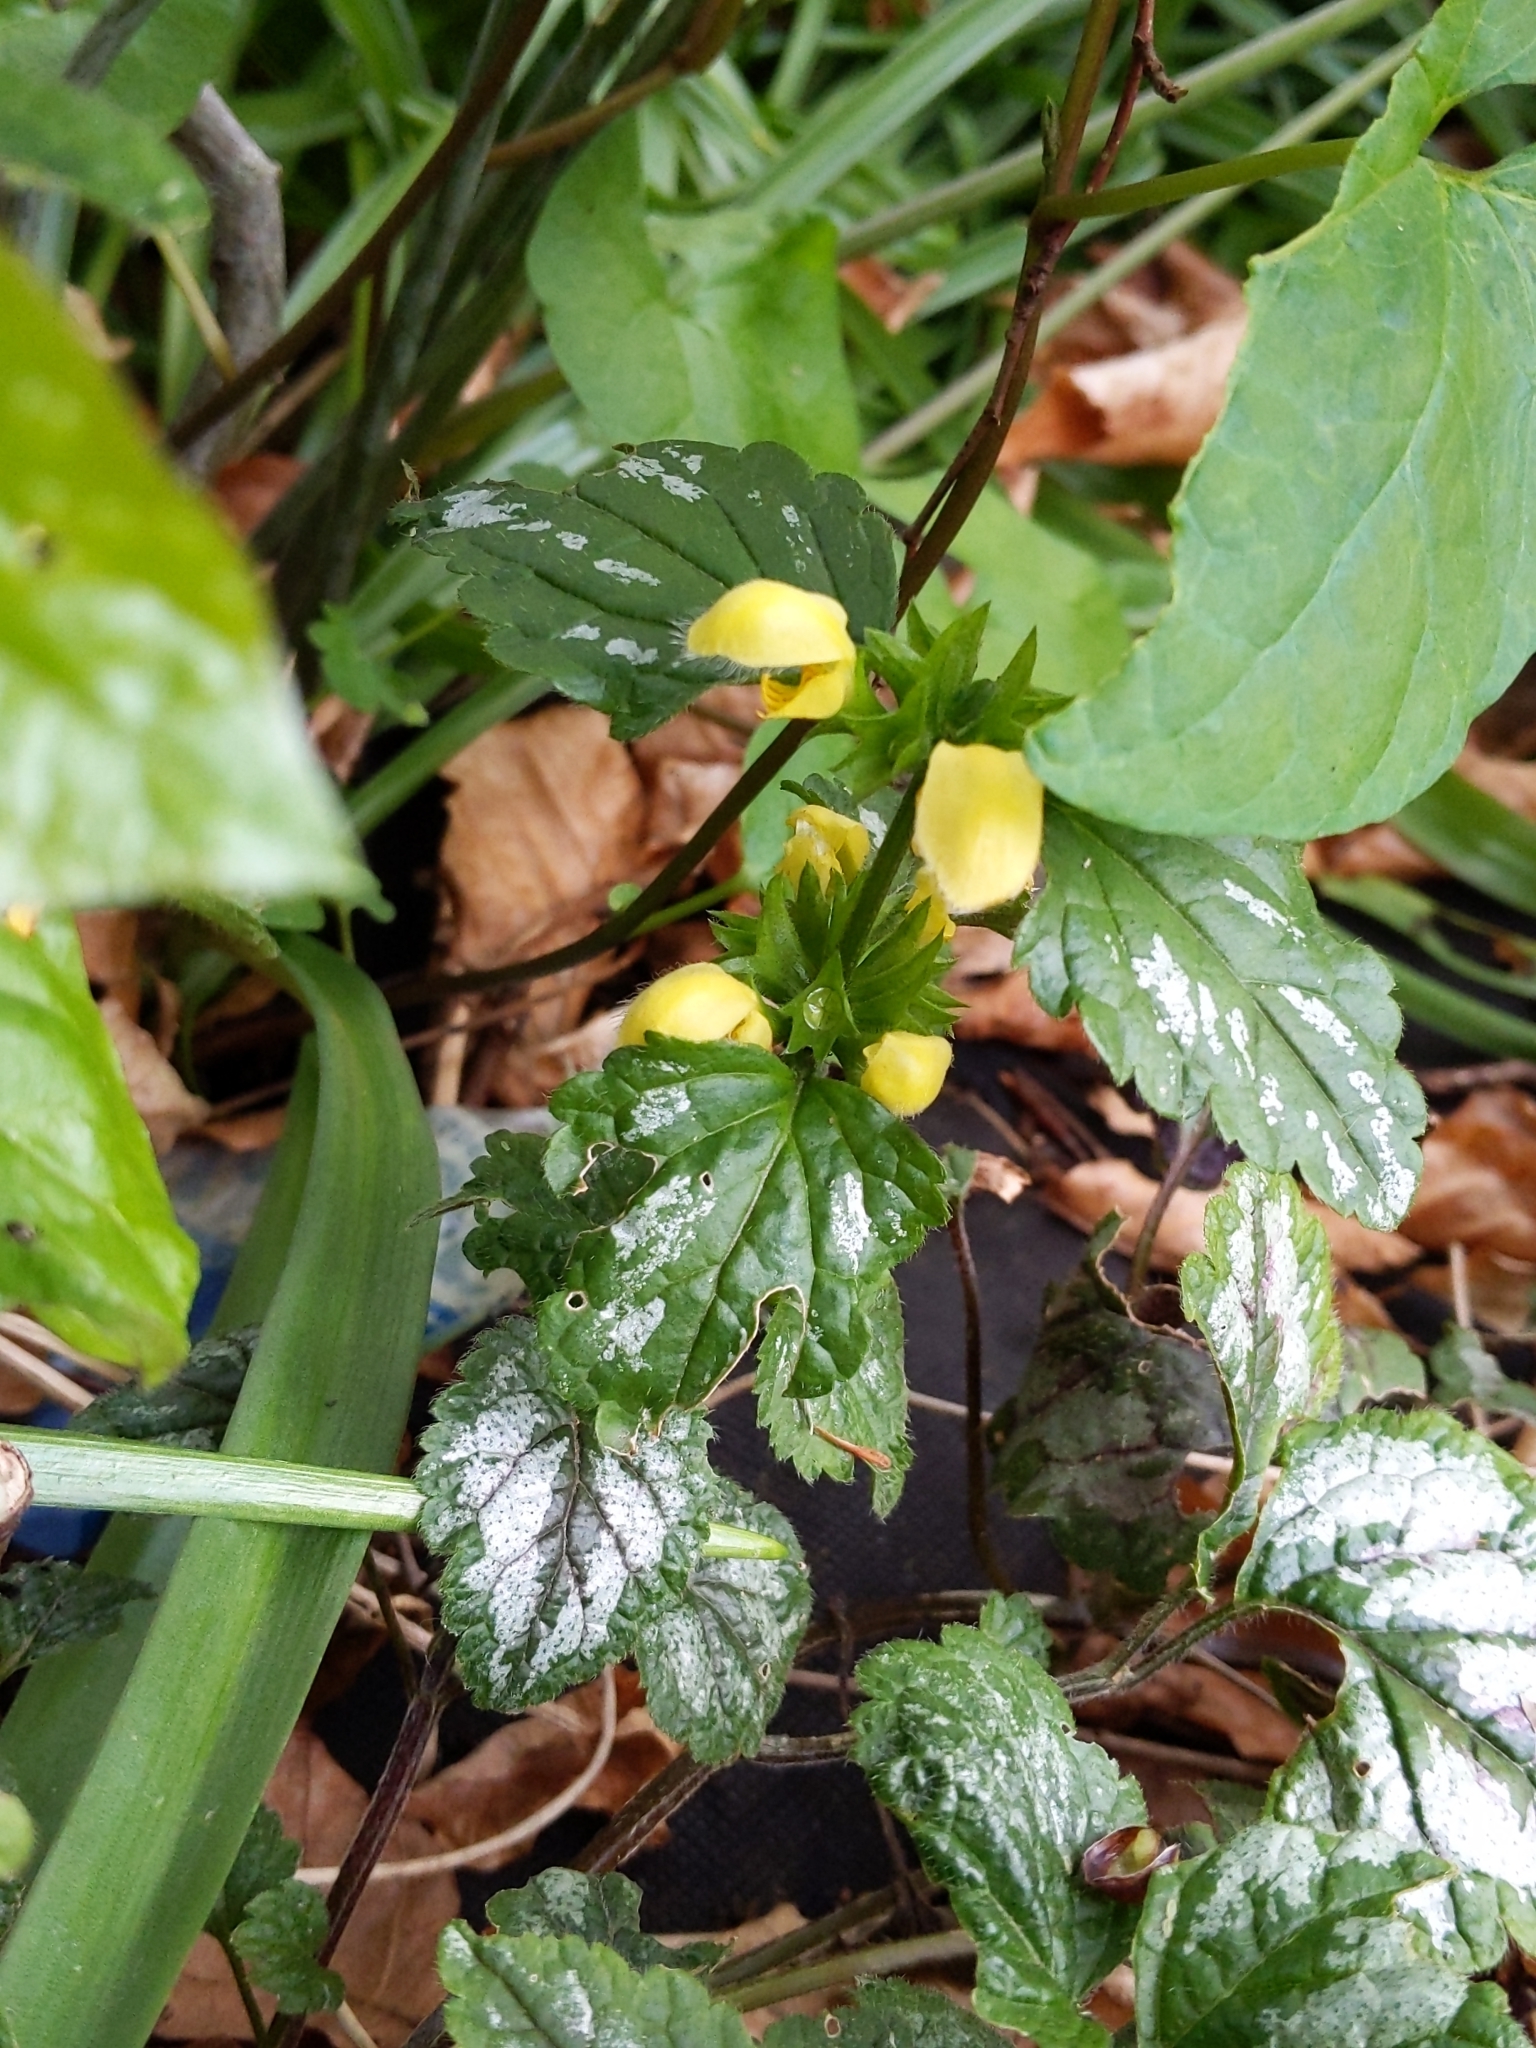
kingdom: Plantae
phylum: Tracheophyta
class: Magnoliopsida
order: Lamiales
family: Lamiaceae
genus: Lamium
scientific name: Lamium galeobdolon
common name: Yellow archangel
